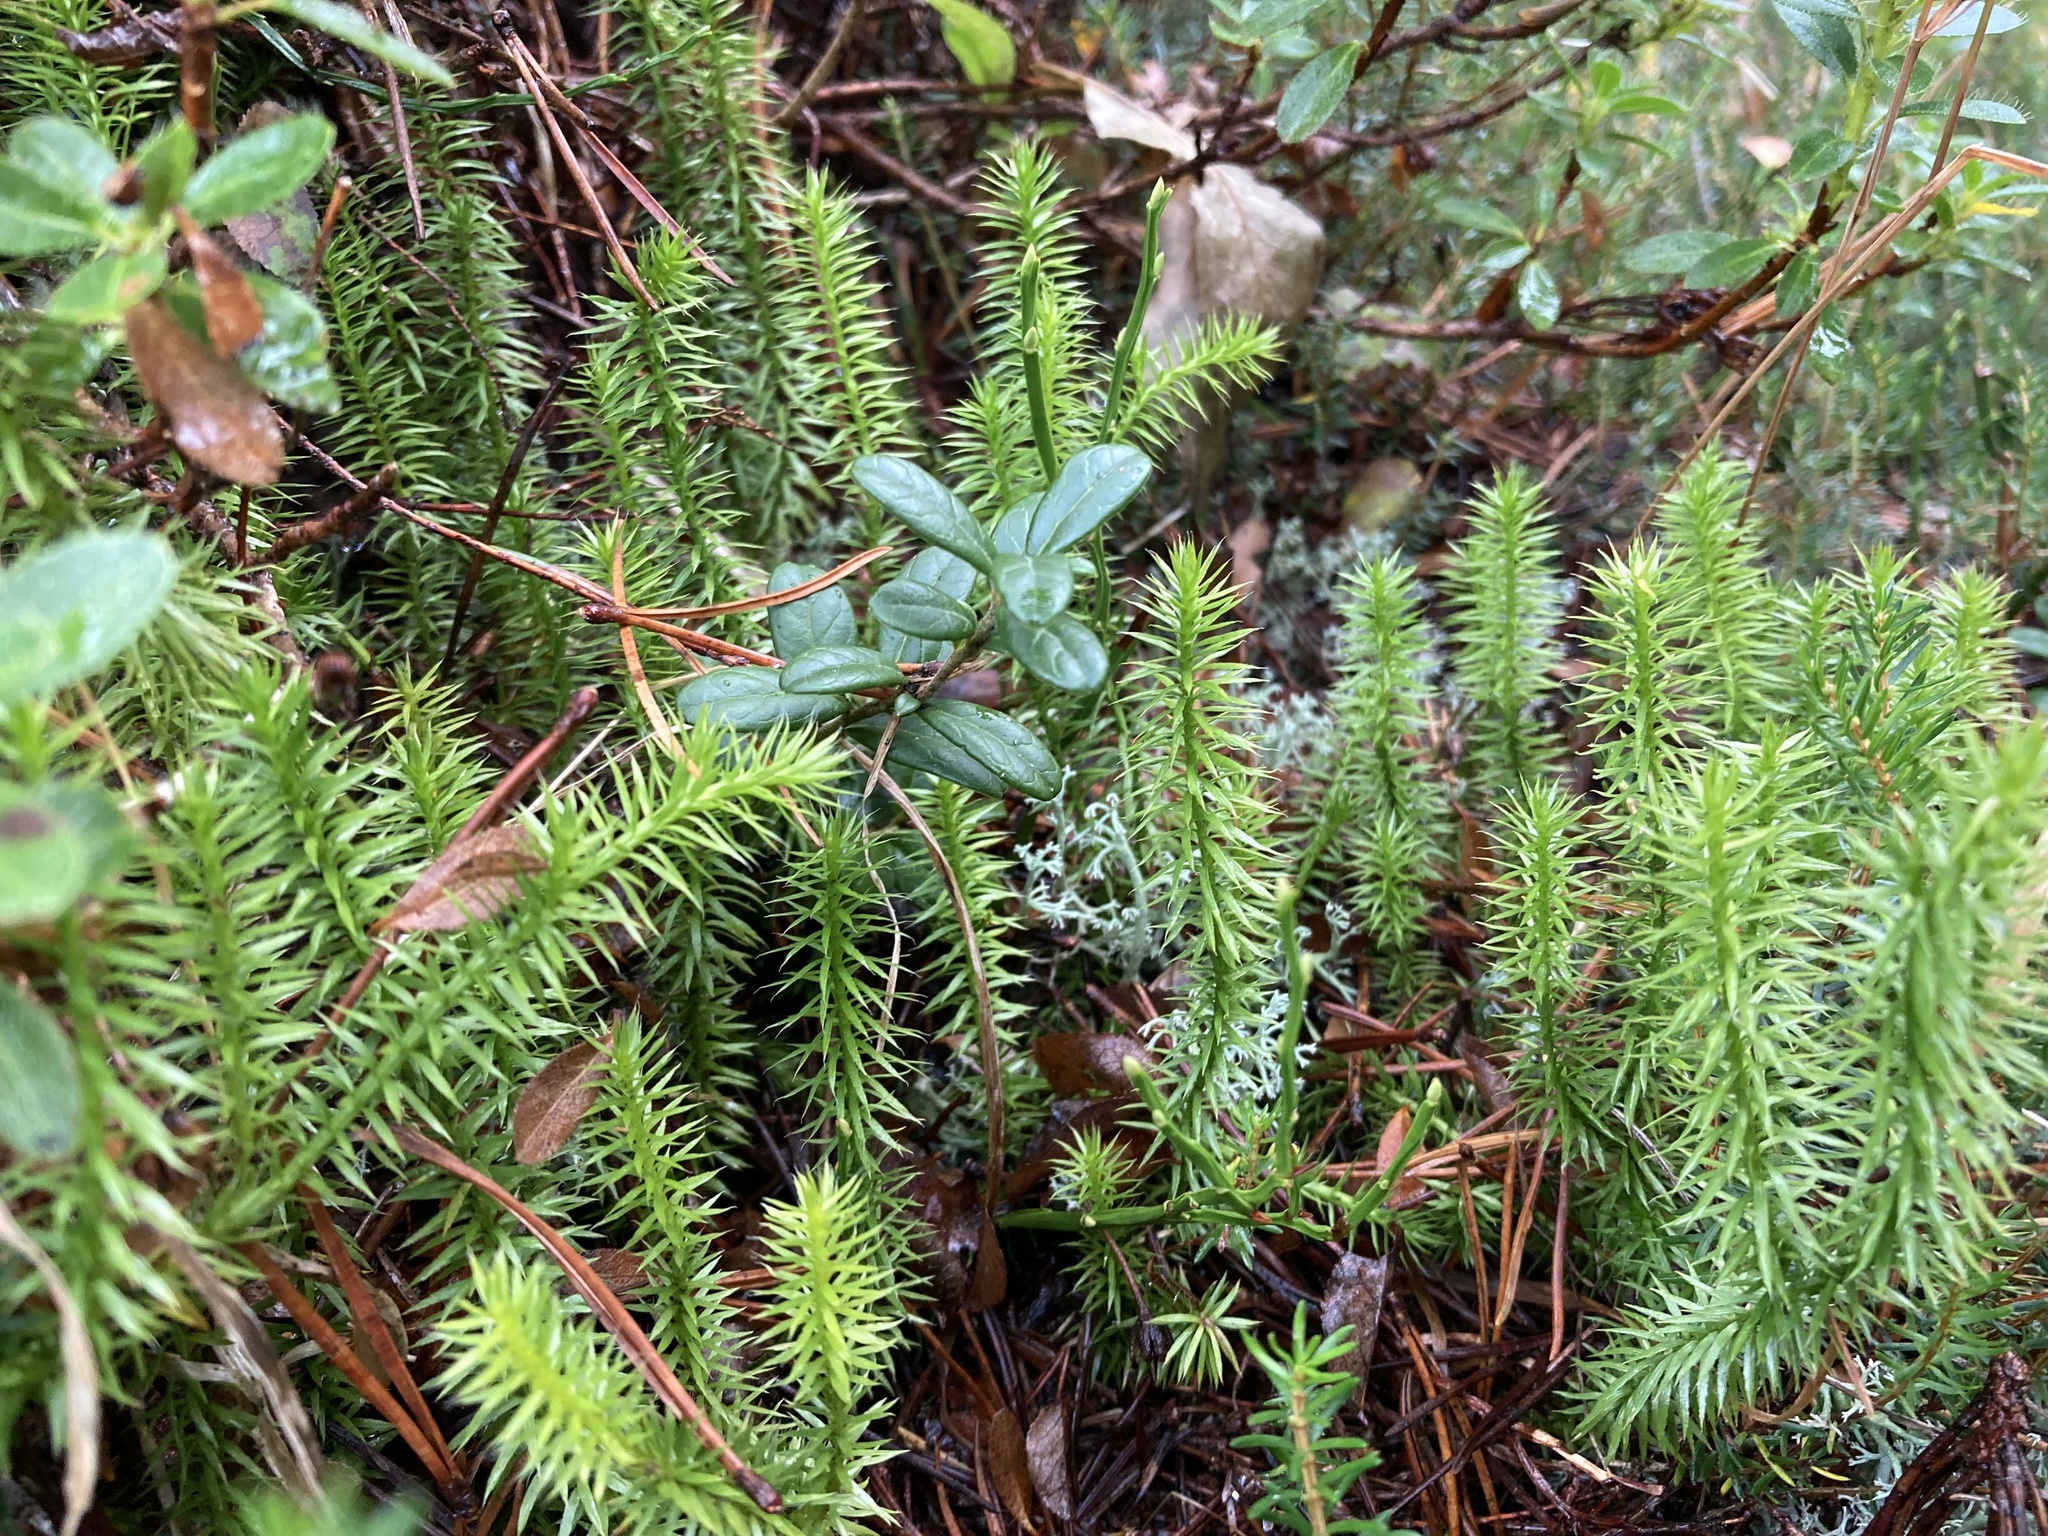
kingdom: Plantae
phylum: Tracheophyta
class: Lycopodiopsida
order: Lycopodiales
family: Lycopodiaceae
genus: Spinulum
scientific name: Spinulum annotinum
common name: Interrupted club-moss
